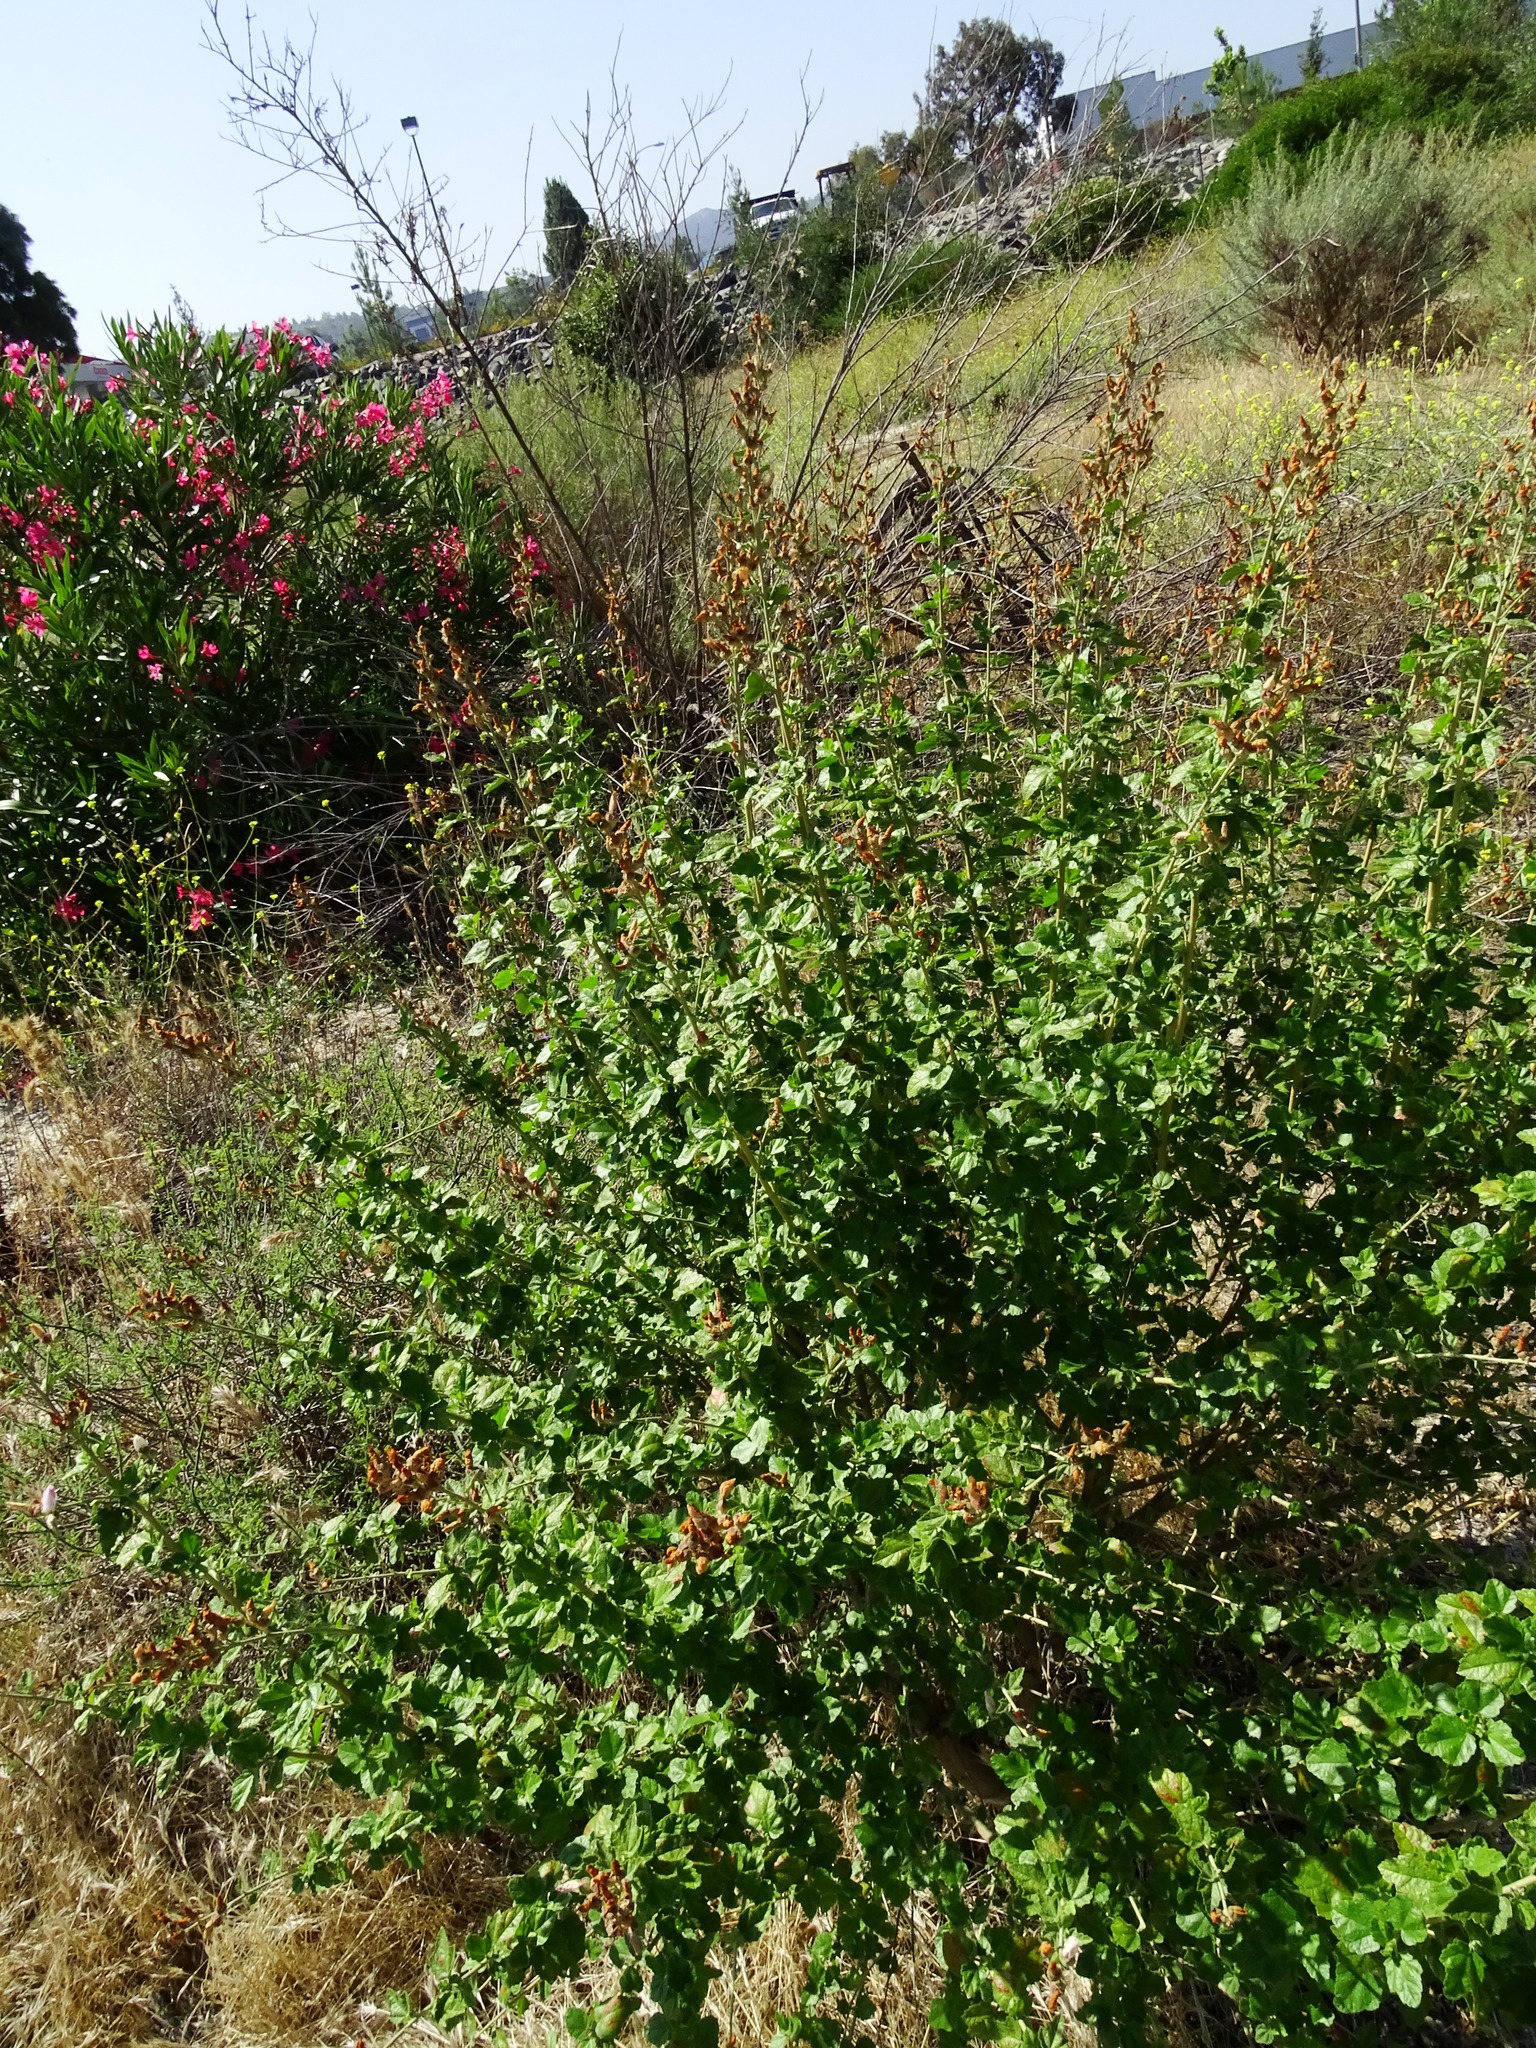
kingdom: Plantae
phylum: Tracheophyta
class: Magnoliopsida
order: Malvales
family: Malvaceae
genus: Malacothamnus
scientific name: Malacothamnus fasciculatus
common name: Sant cruz island bush-mallow
